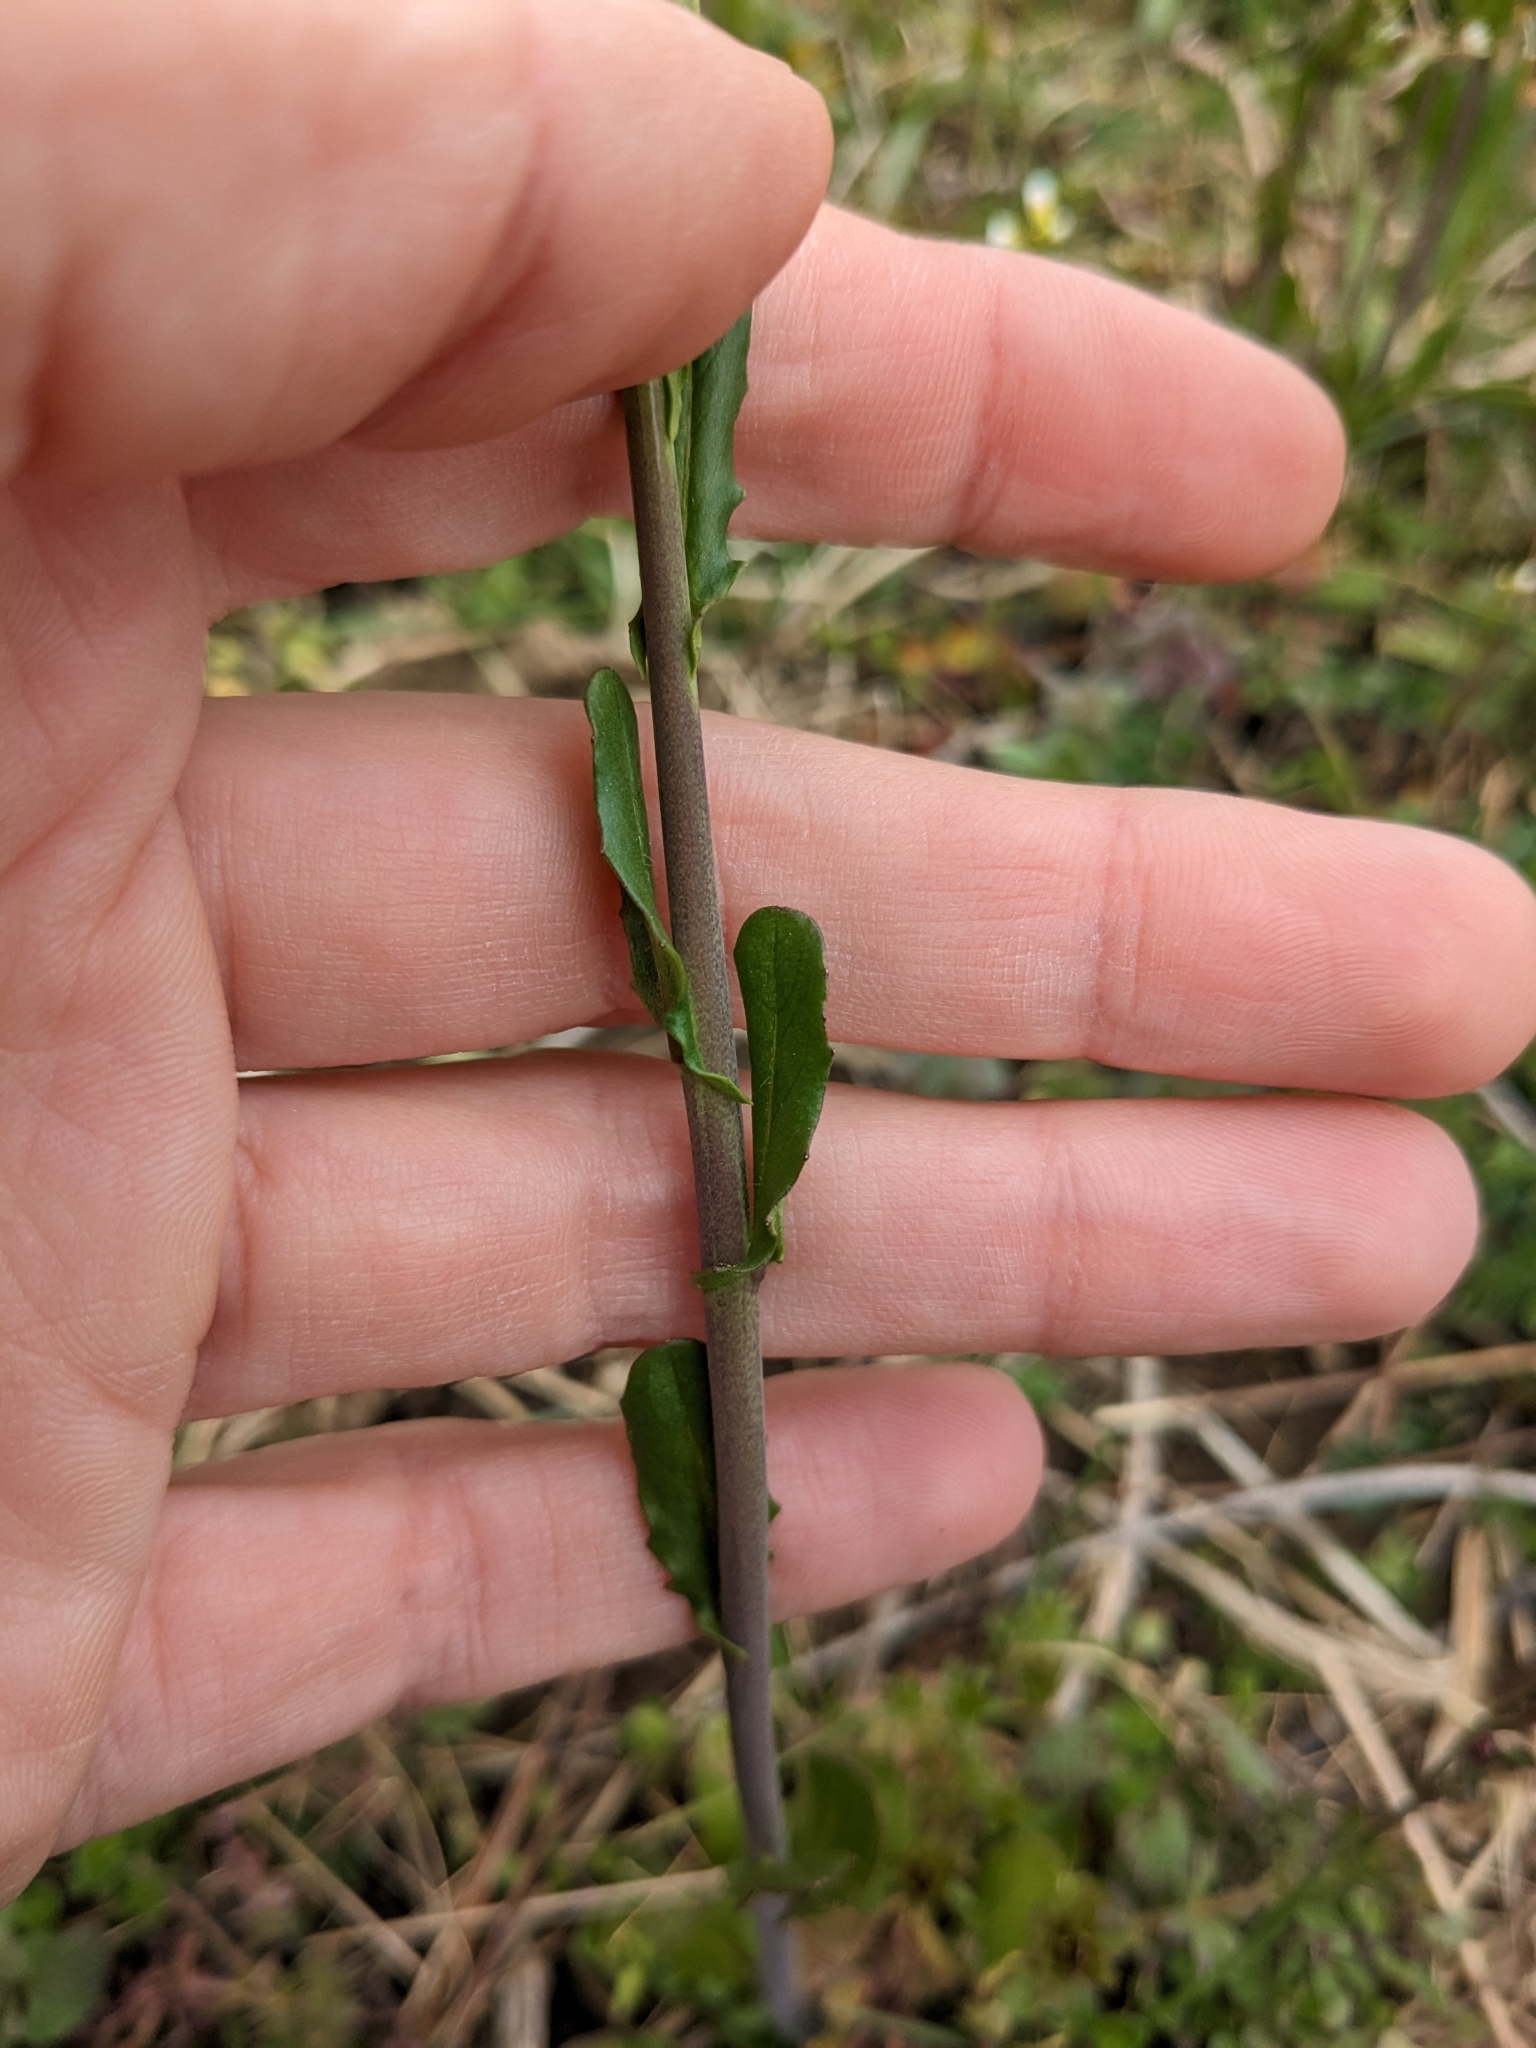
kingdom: Plantae
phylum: Tracheophyta
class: Magnoliopsida
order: Brassicales
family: Brassicaceae
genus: Mummenhoffia
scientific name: Mummenhoffia alliacea
